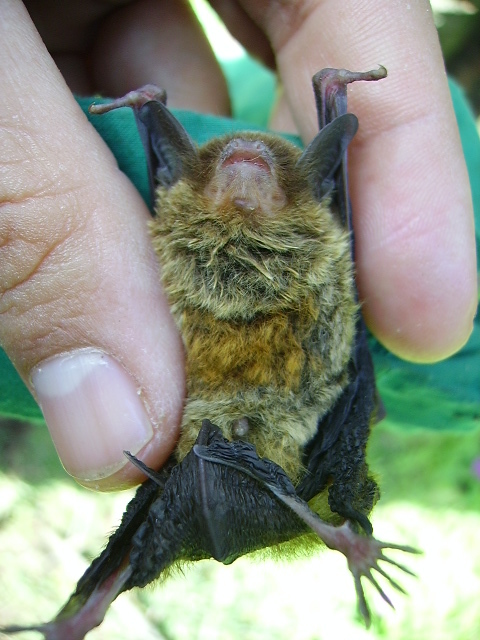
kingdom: Animalia
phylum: Chordata
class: Mammalia
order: Chiroptera
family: Vespertilionidae
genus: Rhogeessa
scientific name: Rhogeessa tumida
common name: Black-winged little yellow bat
